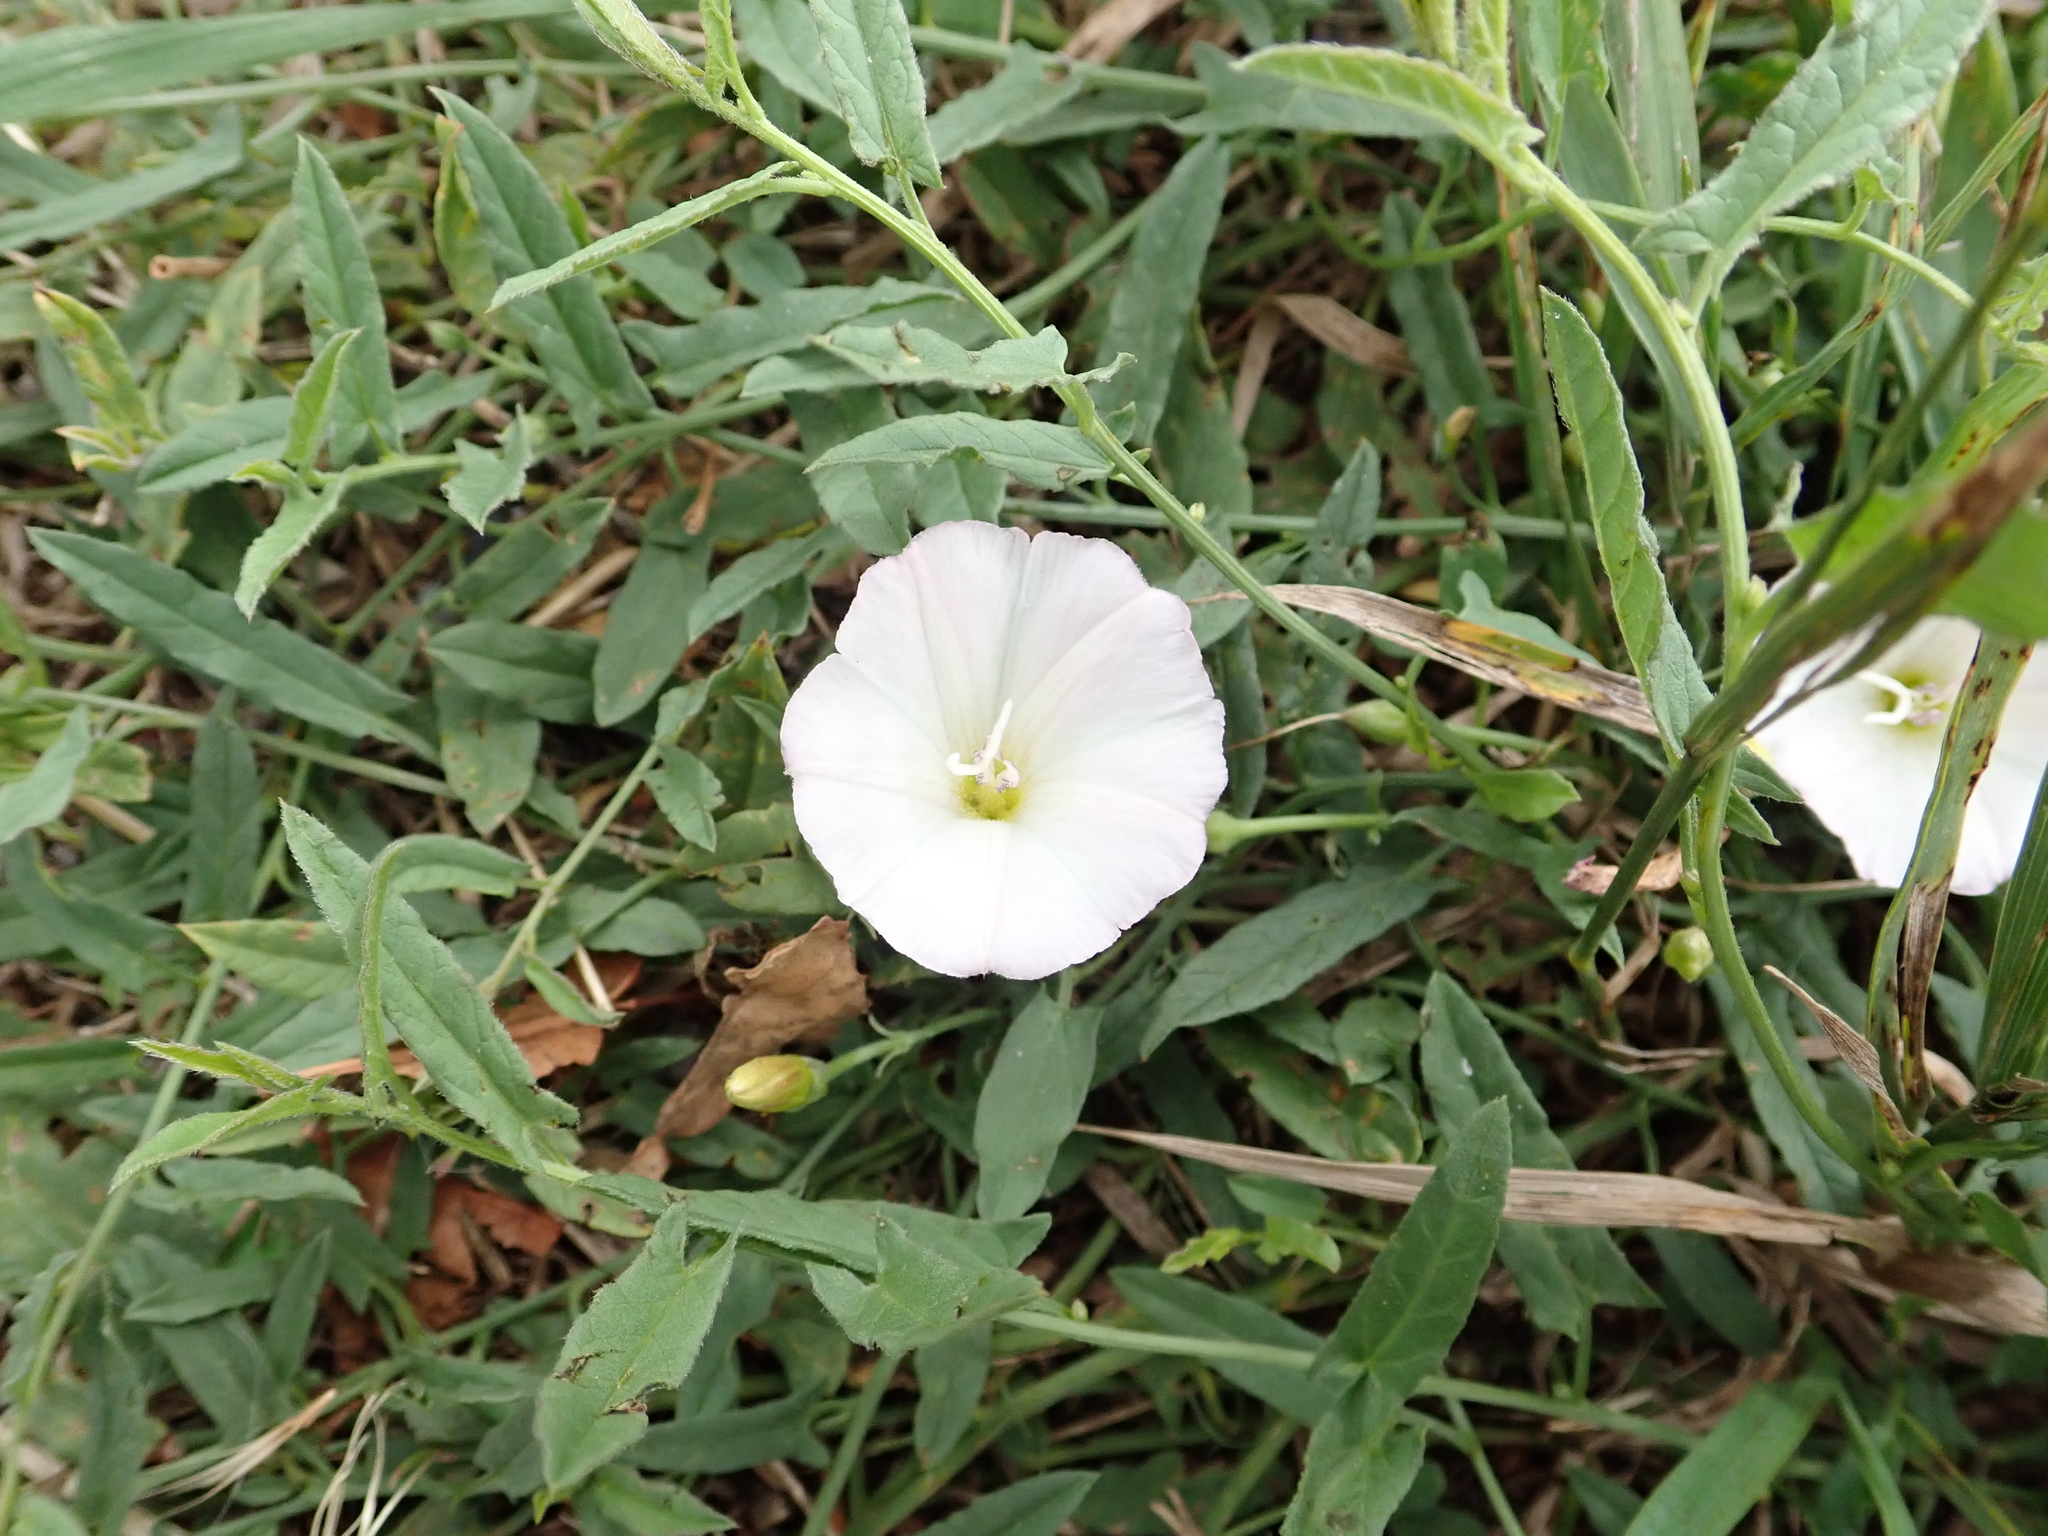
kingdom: Plantae
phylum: Tracheophyta
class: Magnoliopsida
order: Solanales
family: Convolvulaceae
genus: Convolvulus
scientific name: Convolvulus arvensis
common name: Field bindweed
